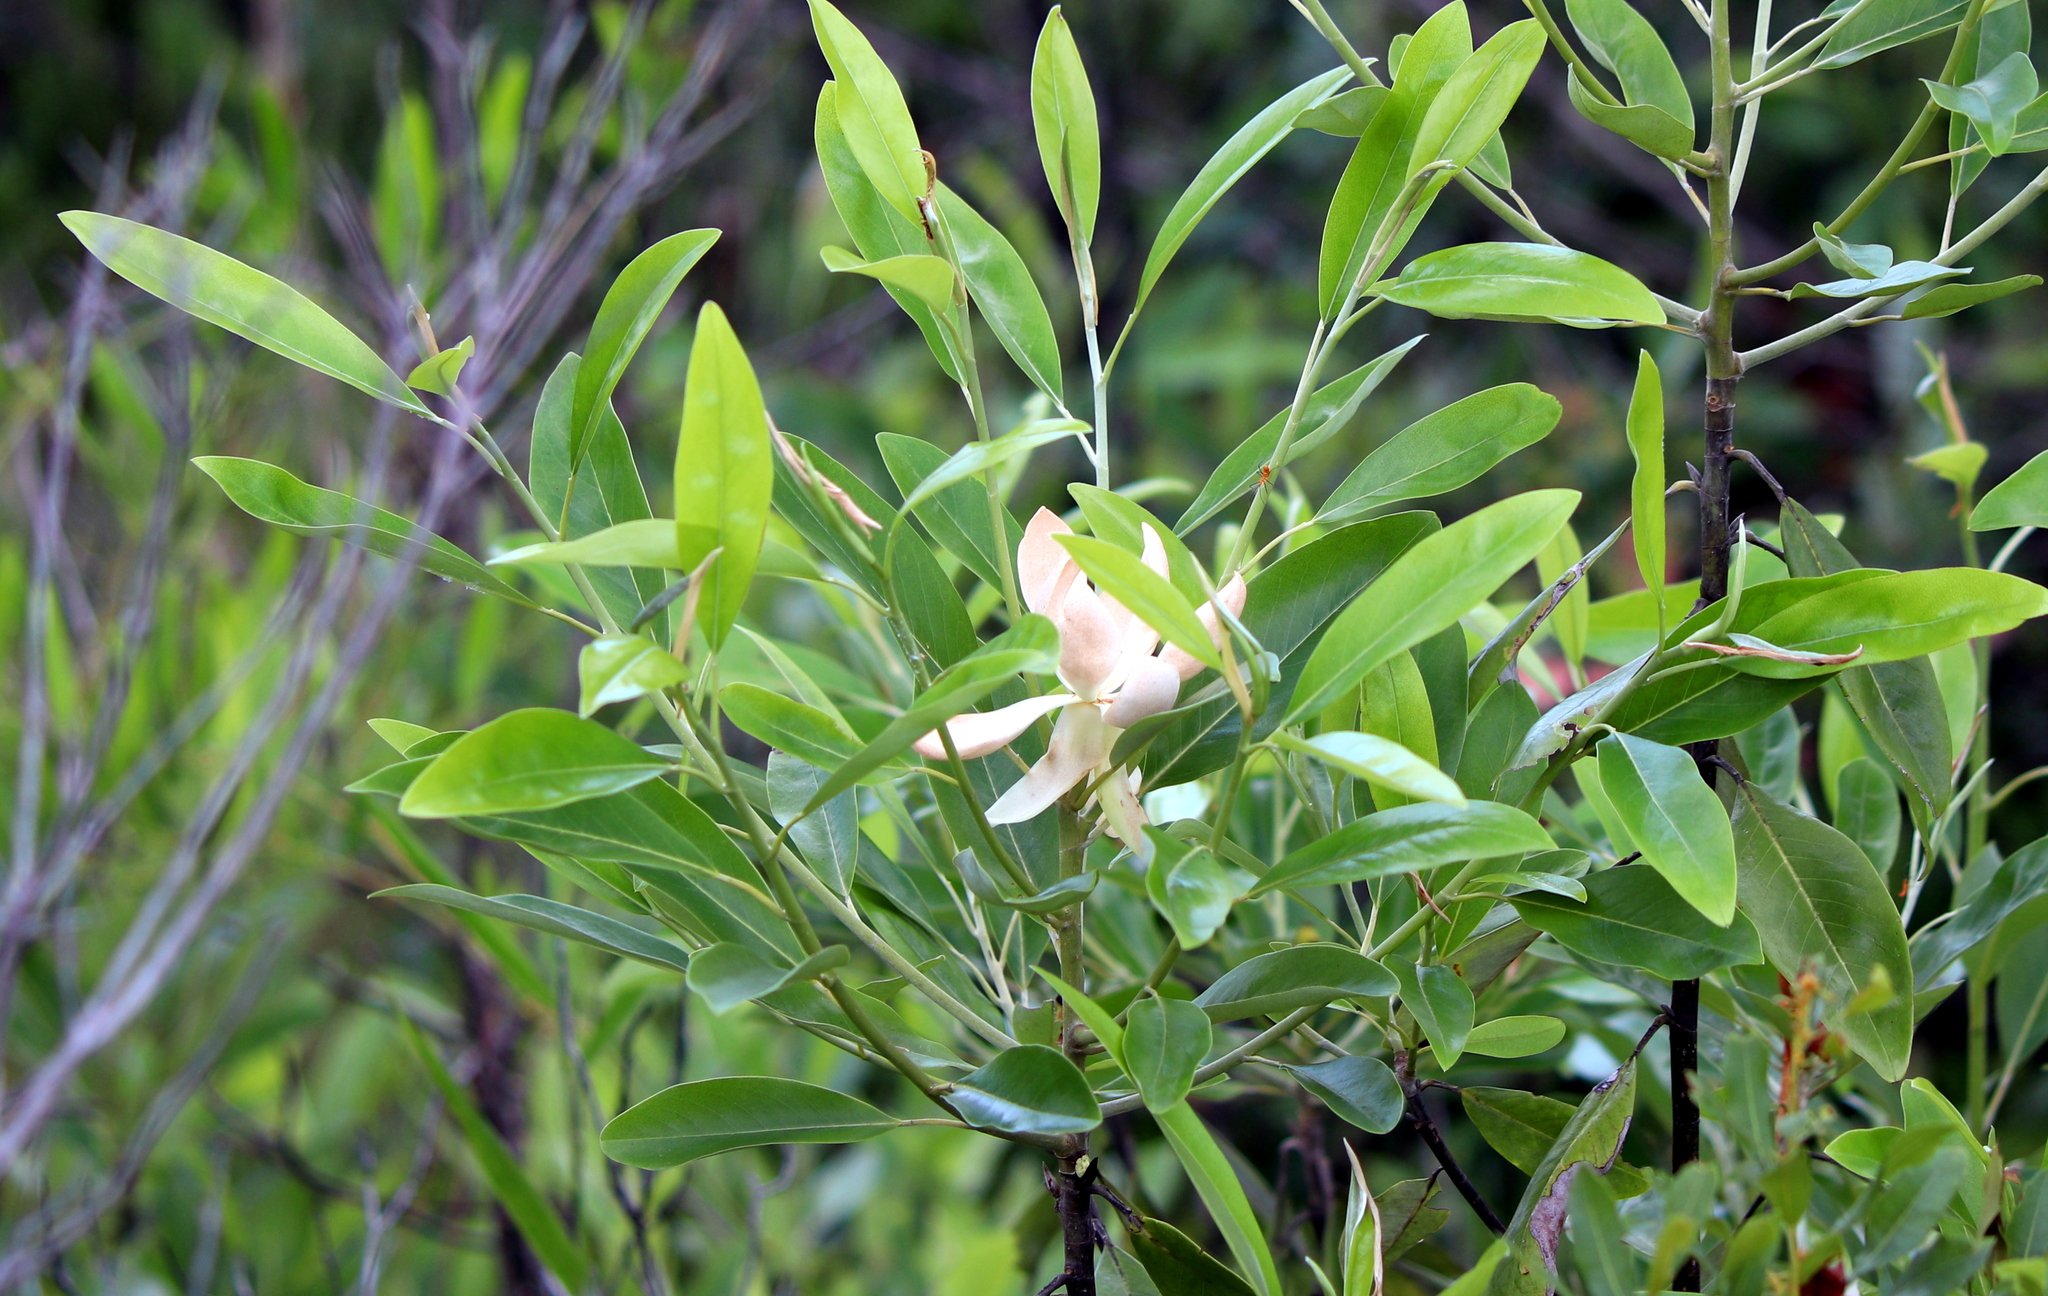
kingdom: Plantae
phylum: Tracheophyta
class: Magnoliopsida
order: Magnoliales
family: Magnoliaceae
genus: Magnolia
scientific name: Magnolia virginiana
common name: Swamp bay
